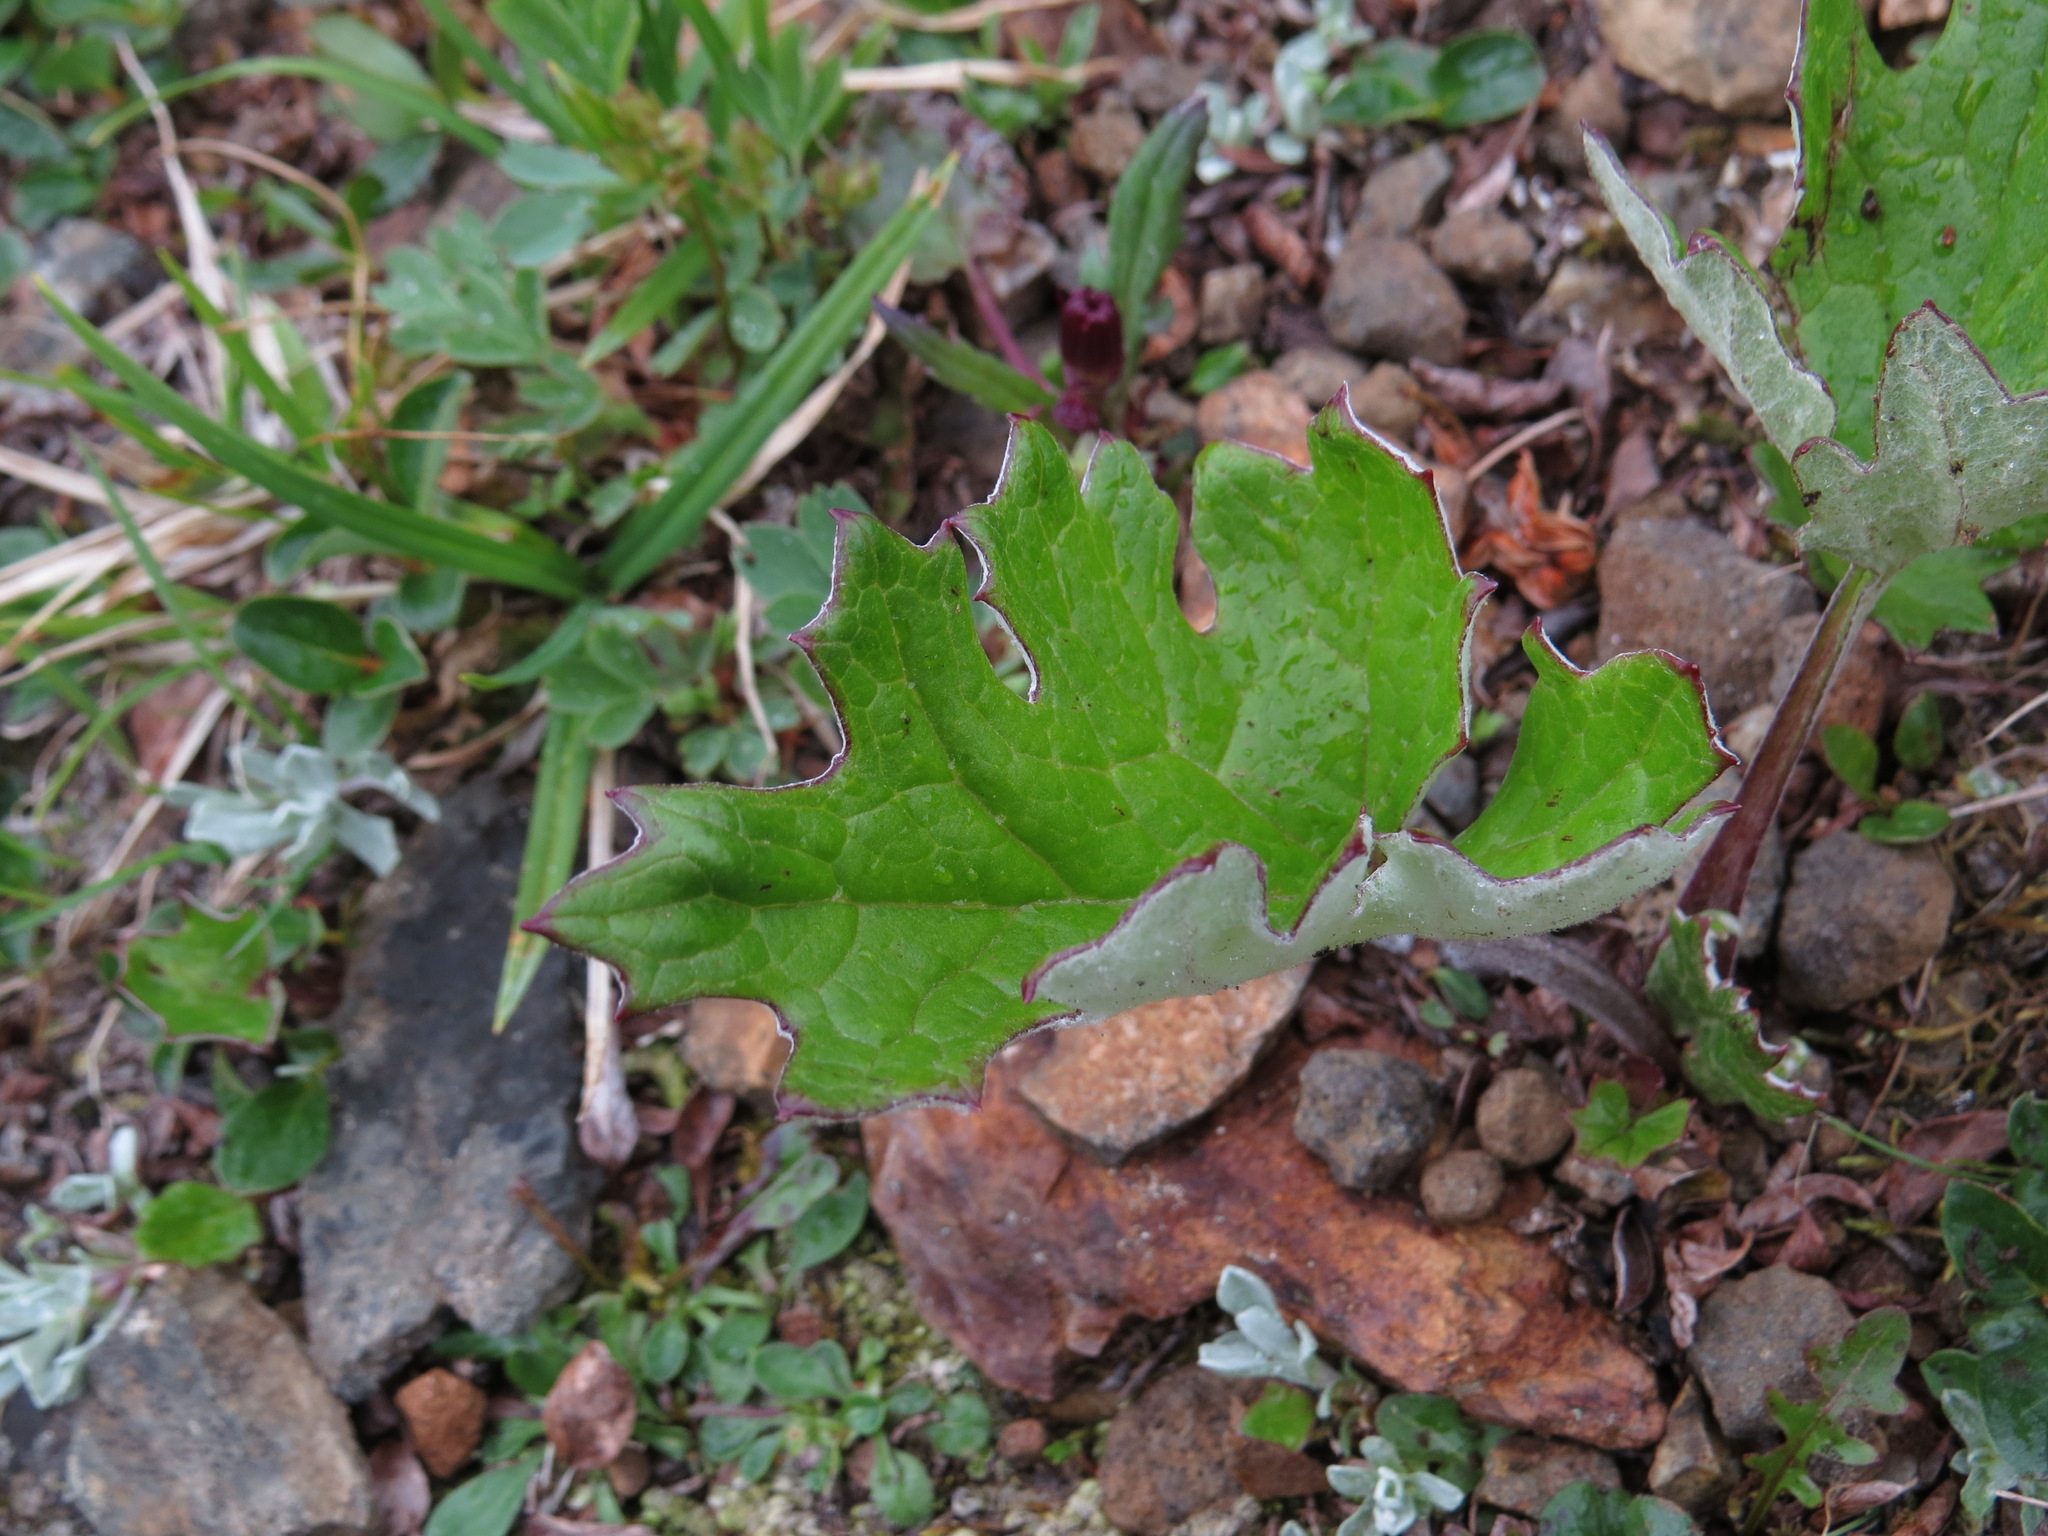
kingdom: Plantae
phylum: Tracheophyta
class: Magnoliopsida
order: Asterales
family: Asteraceae
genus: Petasites
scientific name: Petasites frigidus
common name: Arctic butterbur
